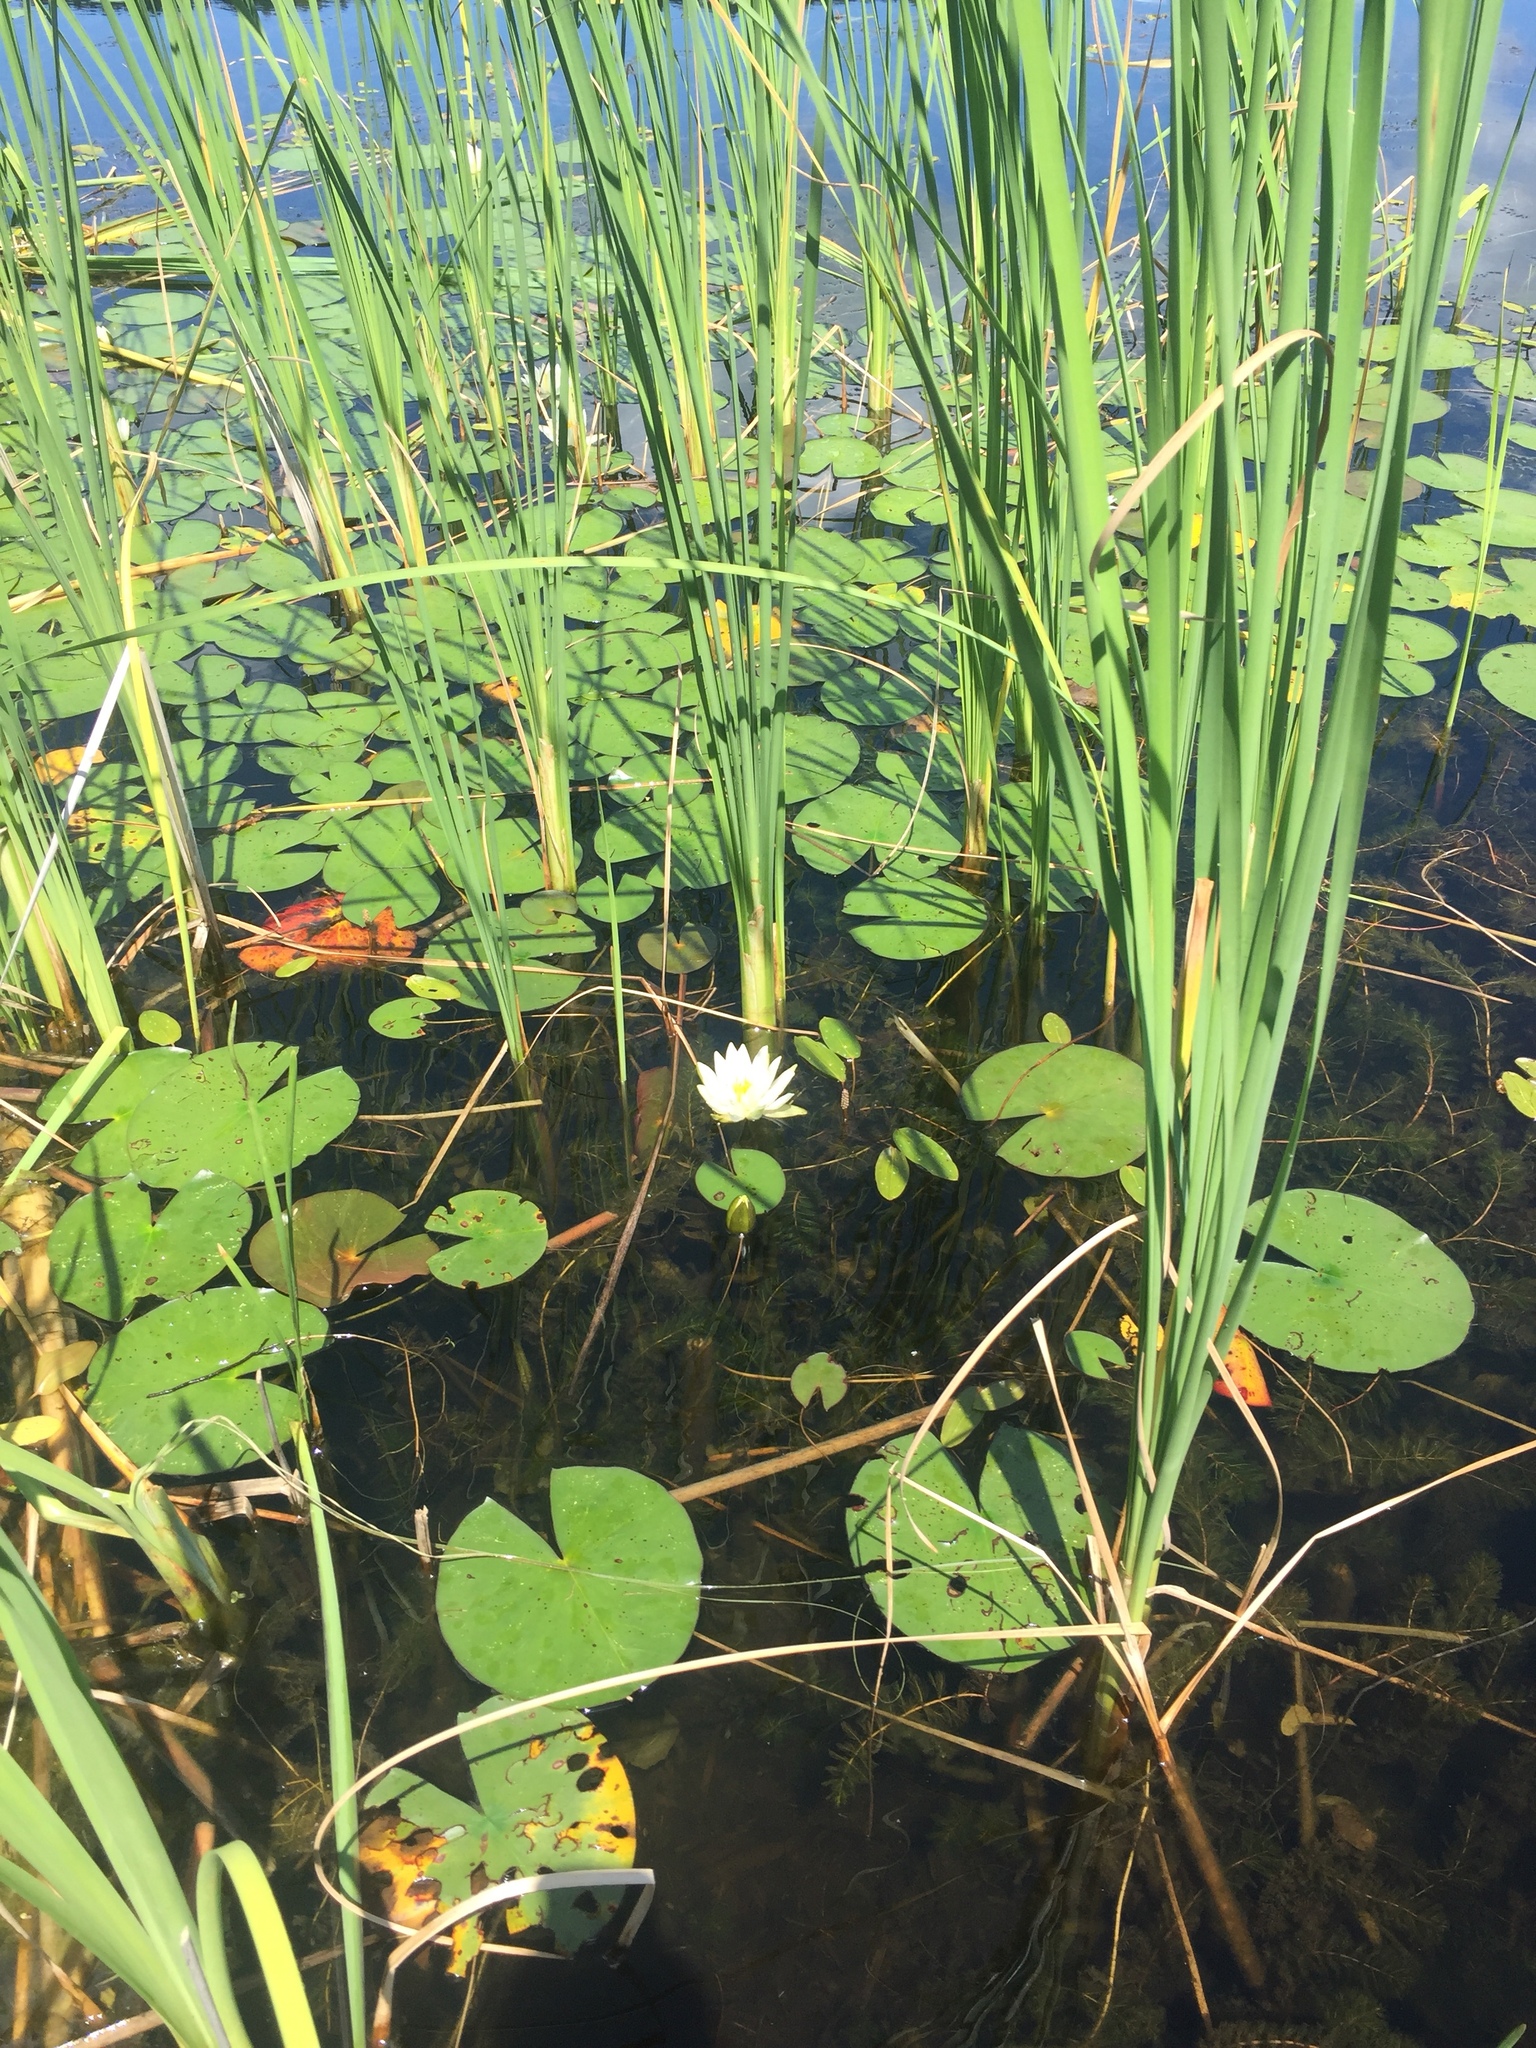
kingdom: Plantae
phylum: Tracheophyta
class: Magnoliopsida
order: Nymphaeales
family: Nymphaeaceae
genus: Nymphaea
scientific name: Nymphaea odorata
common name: Fragrant water-lily
